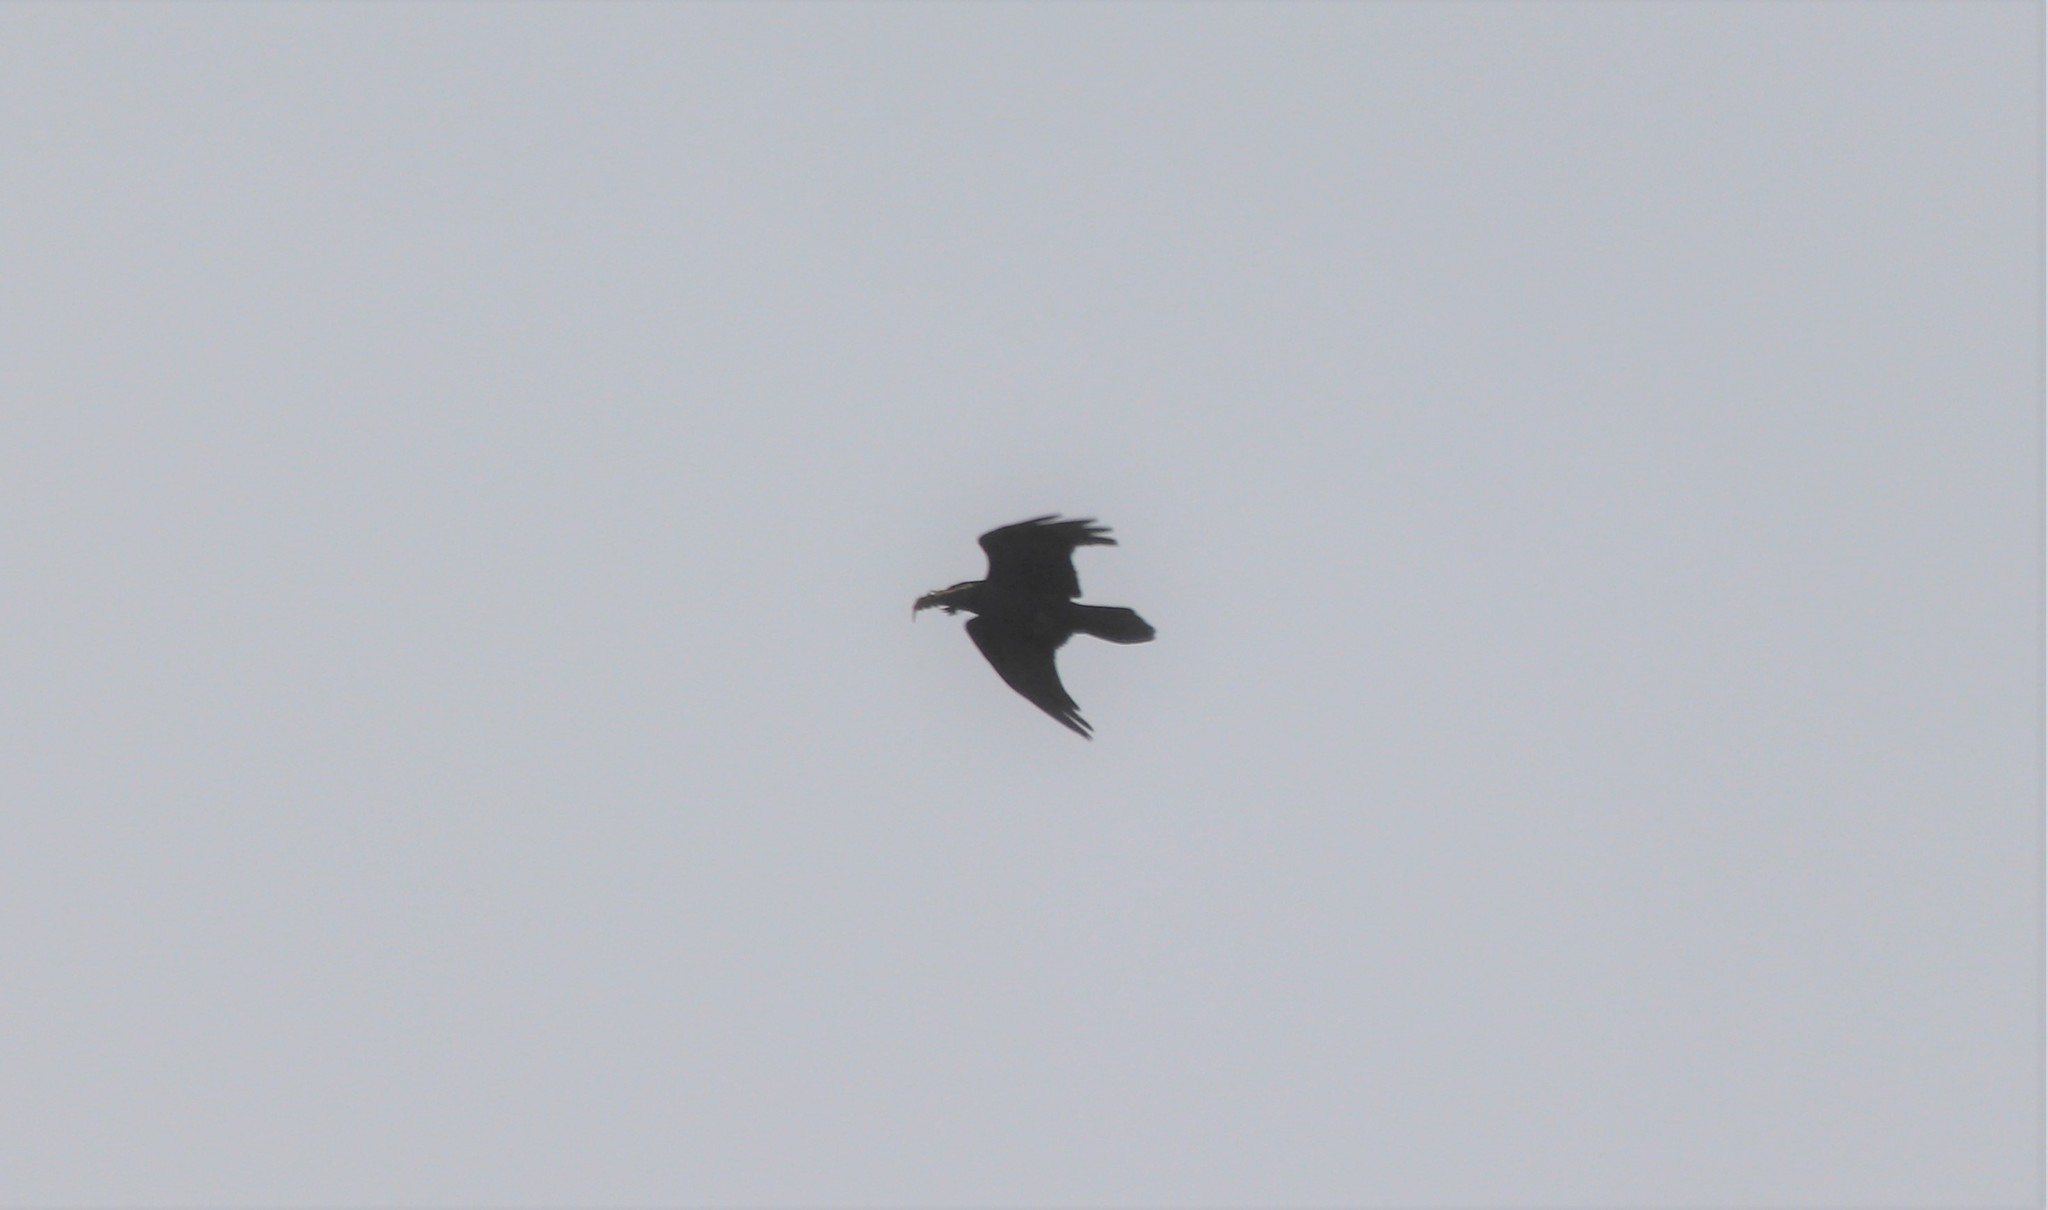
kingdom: Animalia
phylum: Chordata
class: Aves
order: Passeriformes
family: Corvidae
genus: Corvus
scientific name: Corvus corax
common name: Common raven
